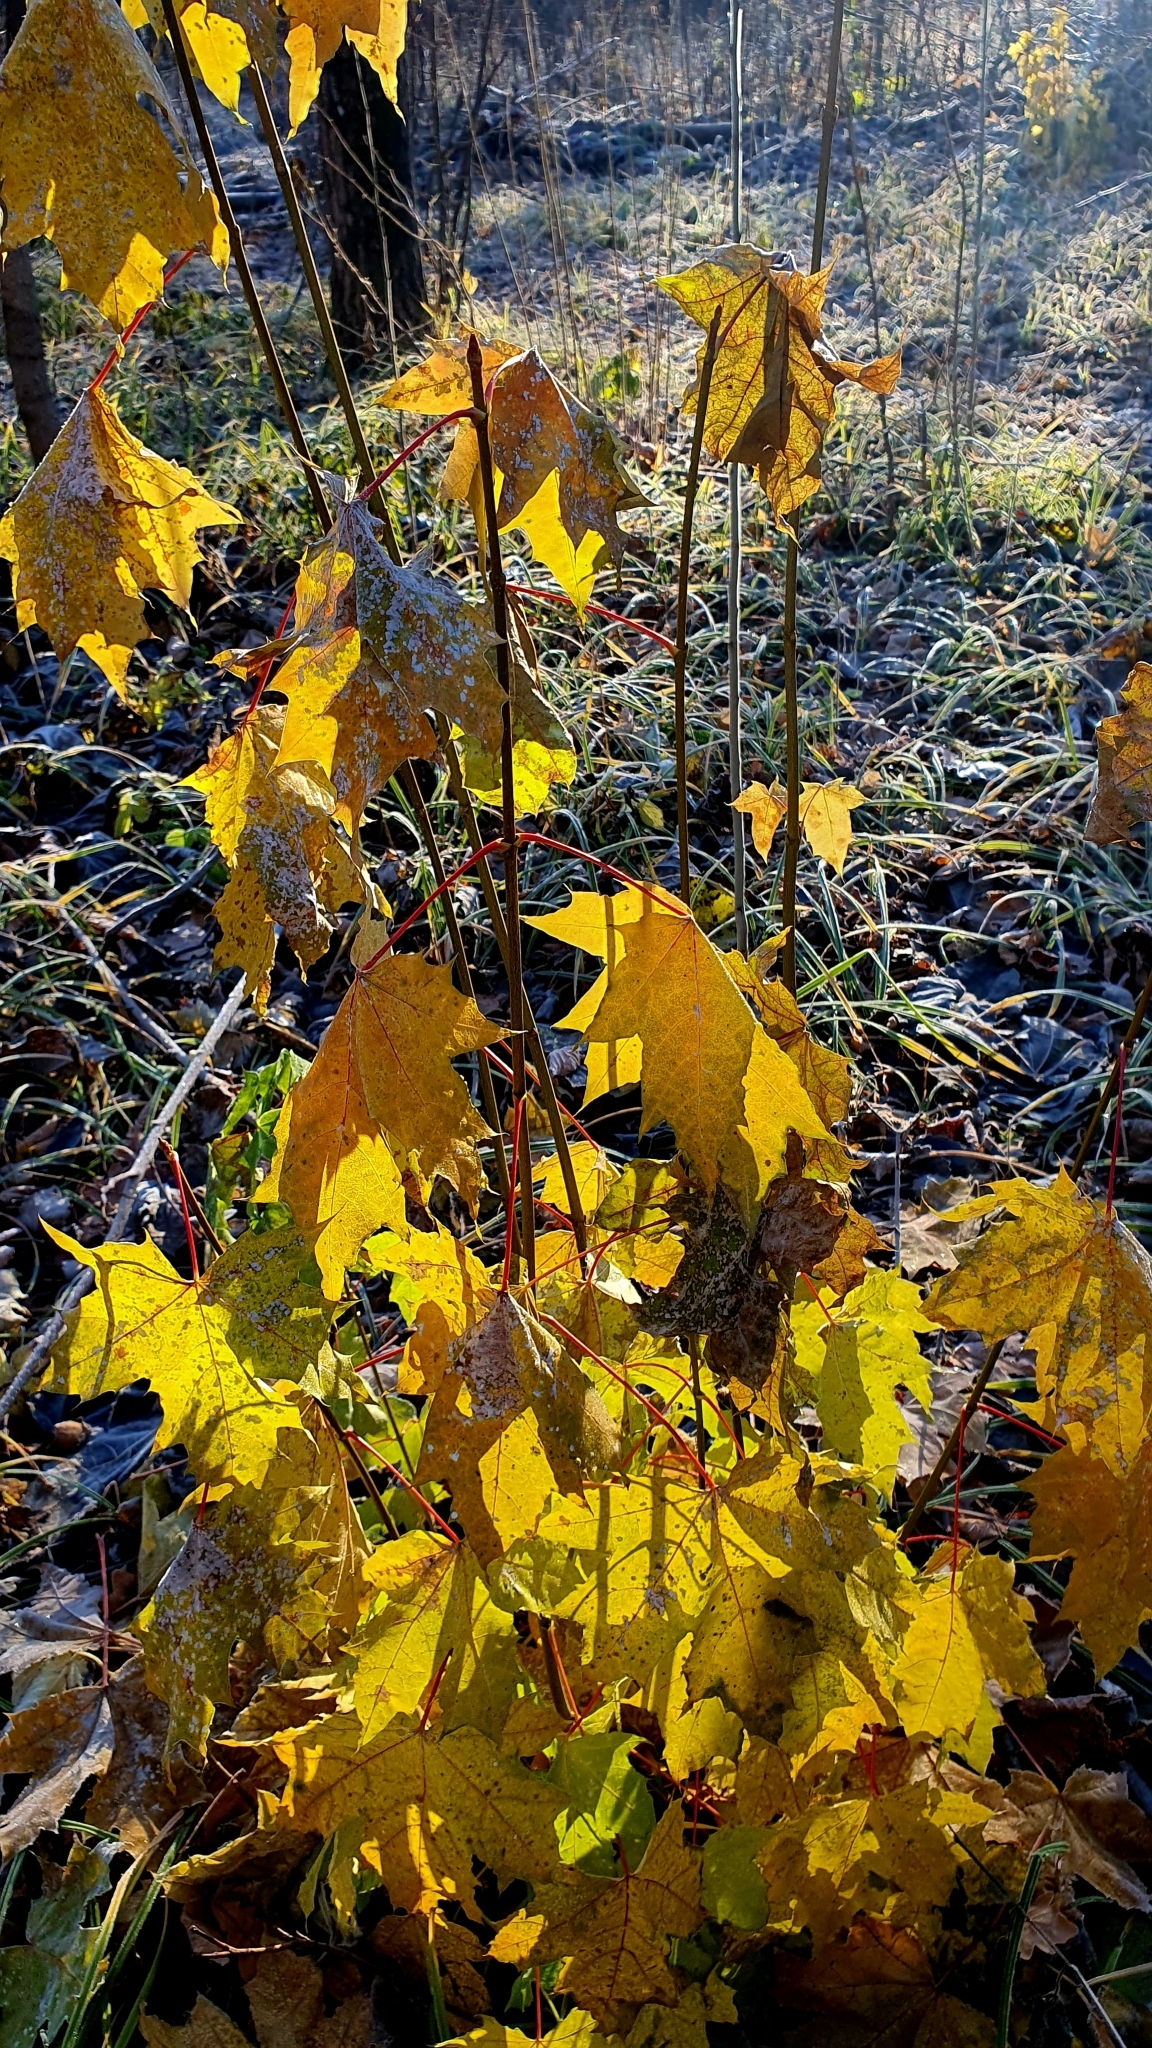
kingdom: Plantae
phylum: Tracheophyta
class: Magnoliopsida
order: Sapindales
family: Sapindaceae
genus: Acer
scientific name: Acer platanoides
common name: Norway maple
